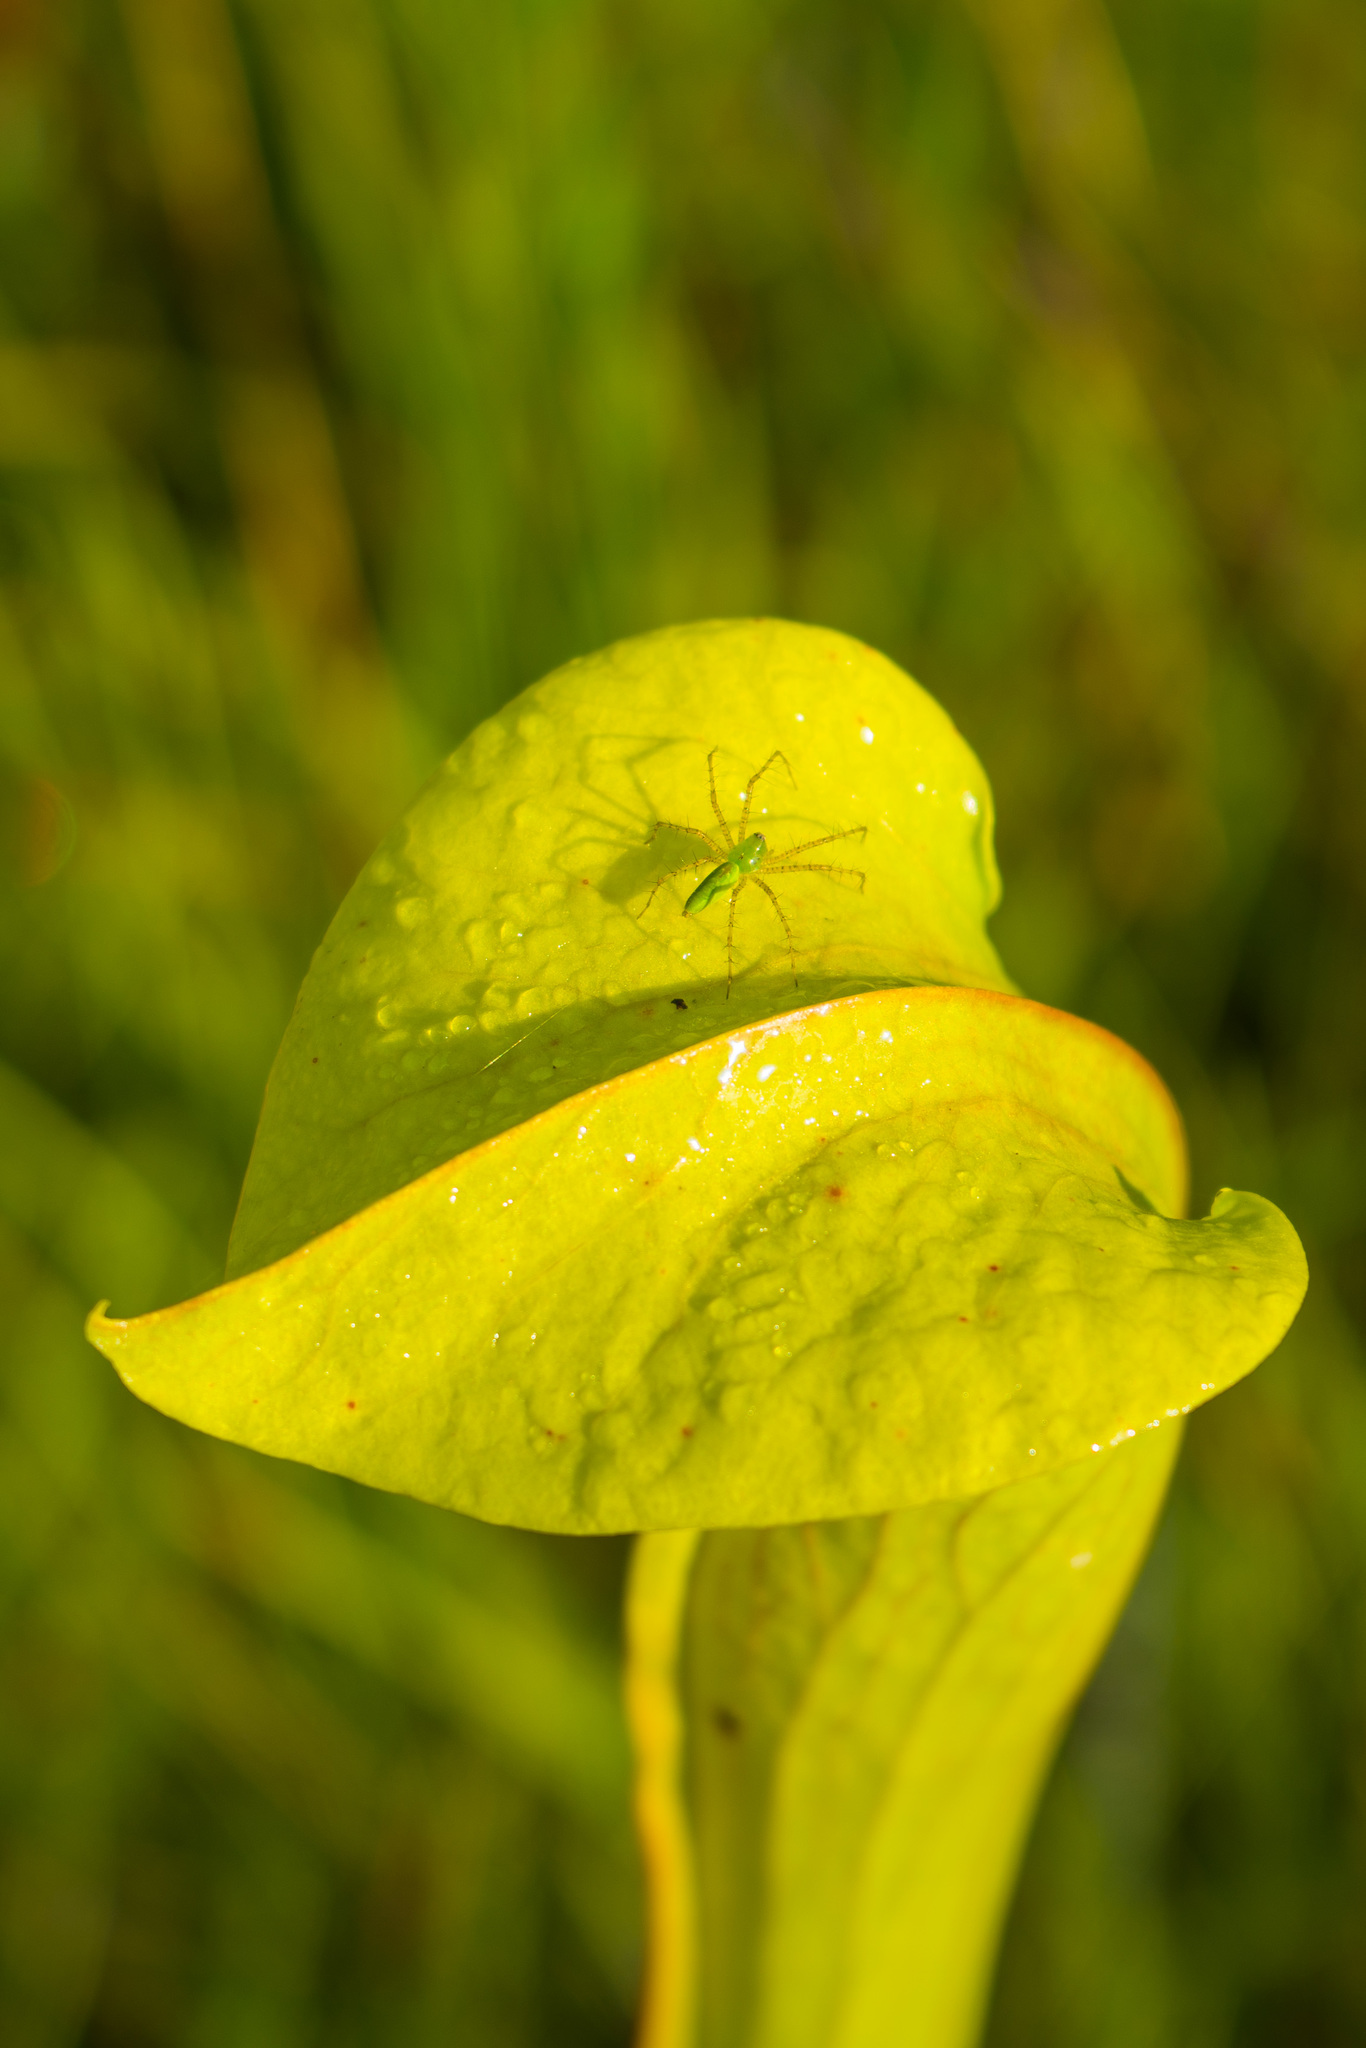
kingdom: Animalia
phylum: Arthropoda
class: Arachnida
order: Araneae
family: Oxyopidae
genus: Peucetia
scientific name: Peucetia viridans
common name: Lynx spiders
